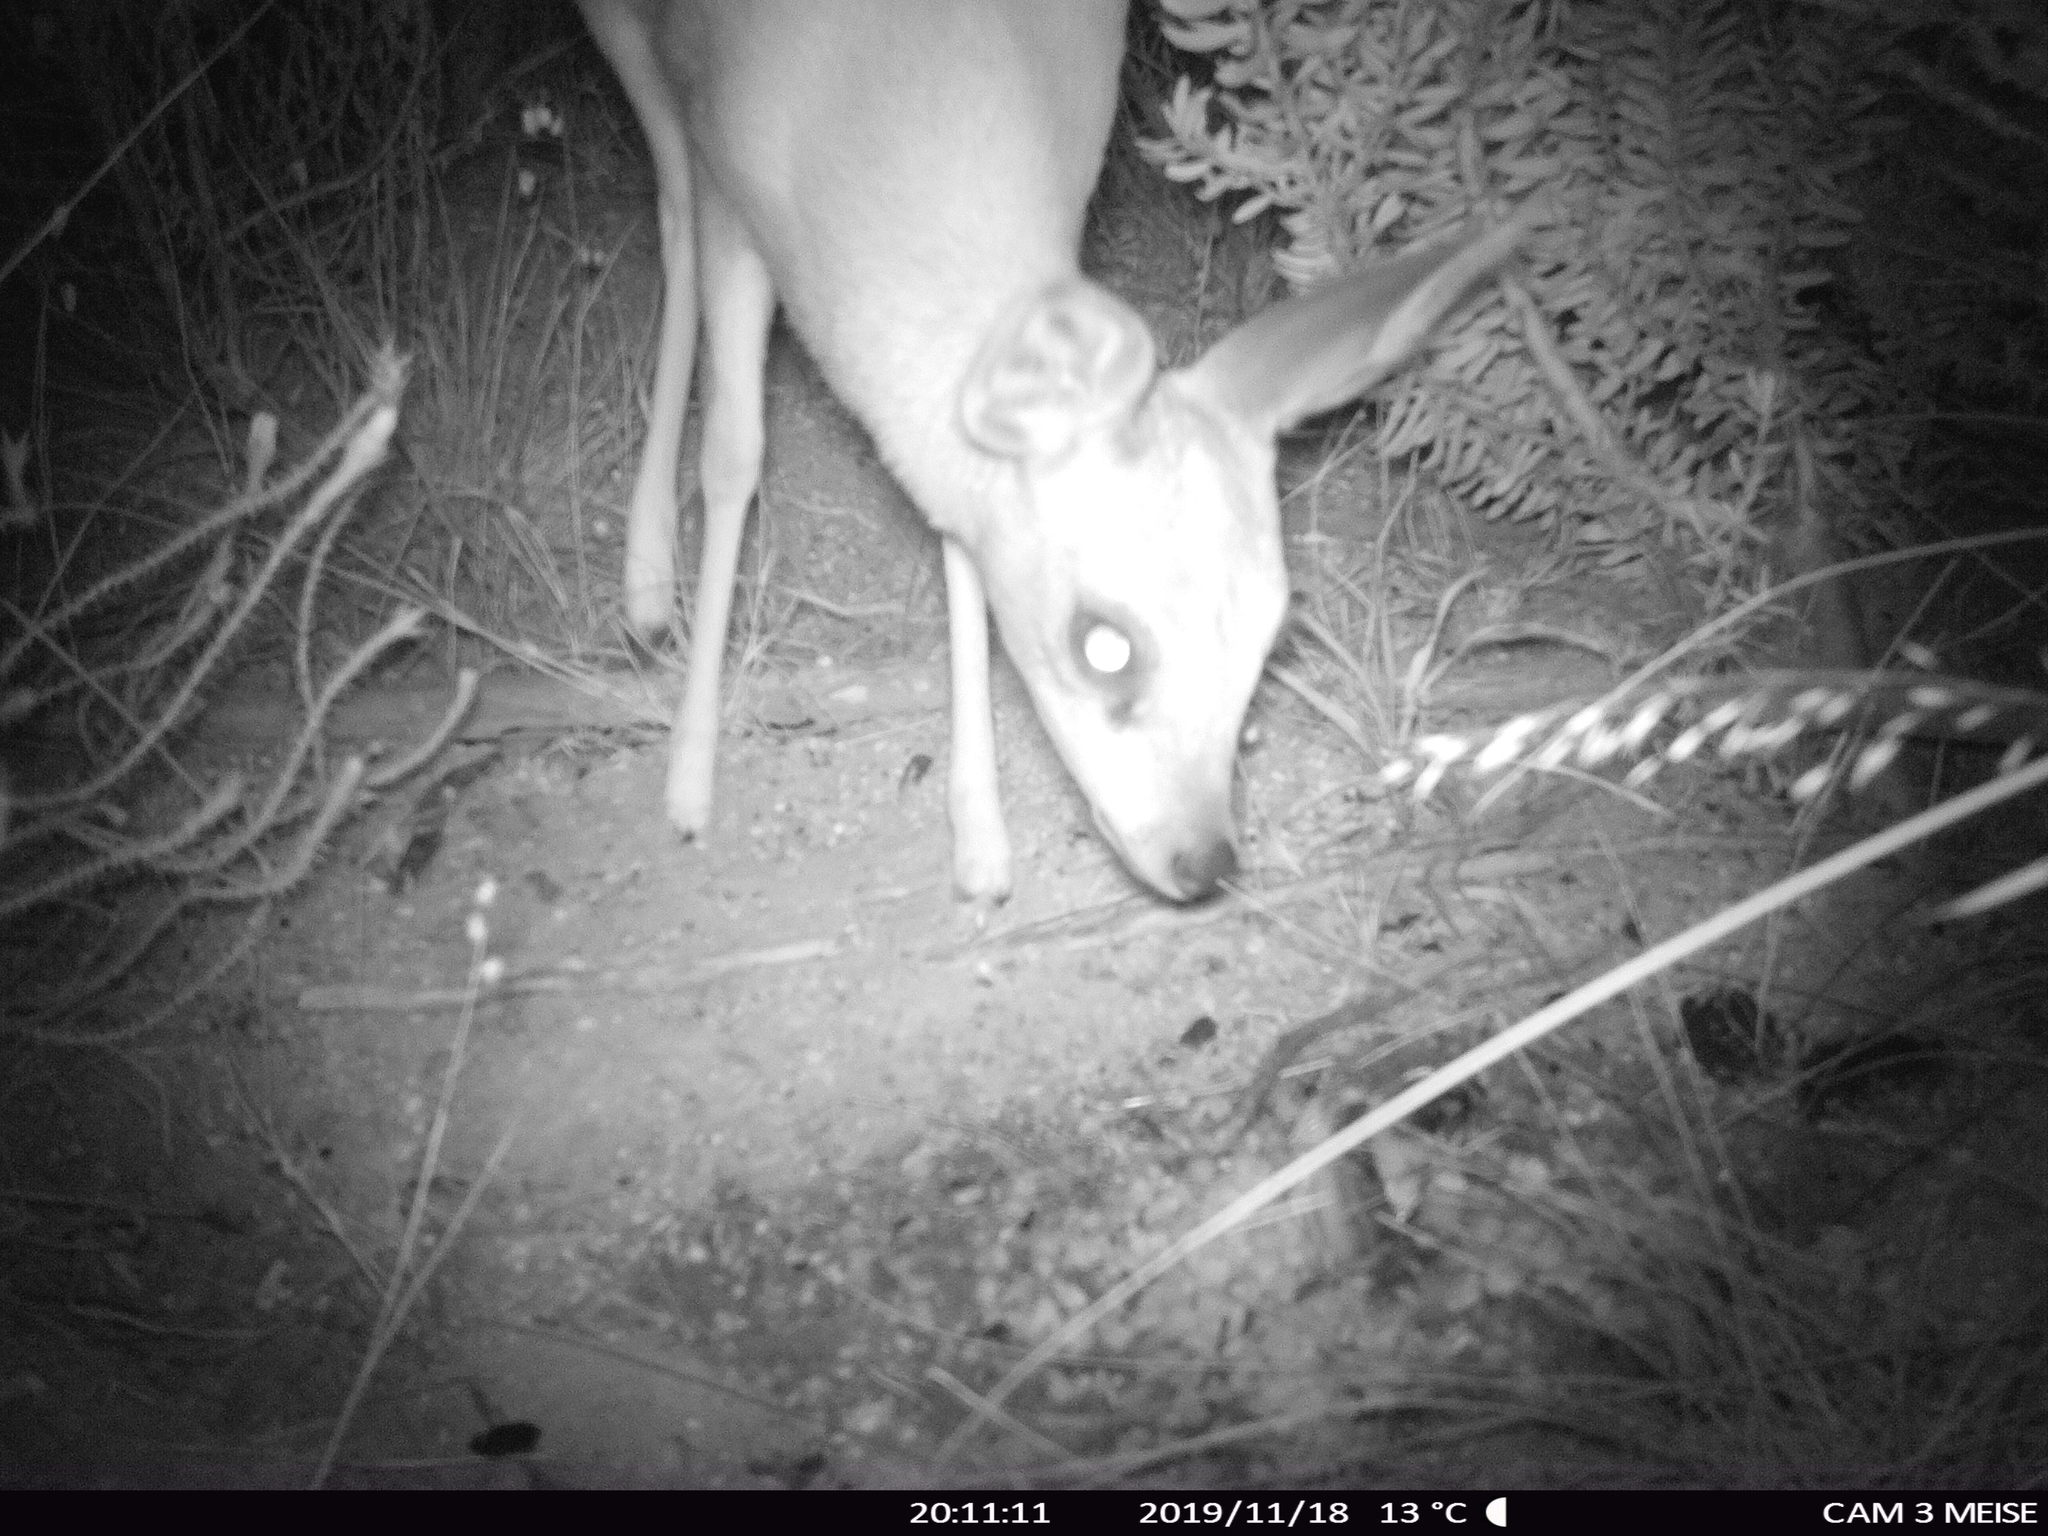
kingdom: Animalia
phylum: Chordata
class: Mammalia
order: Artiodactyla
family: Bovidae
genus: Raphicerus
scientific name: Raphicerus melanotis
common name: Cape grysbok
